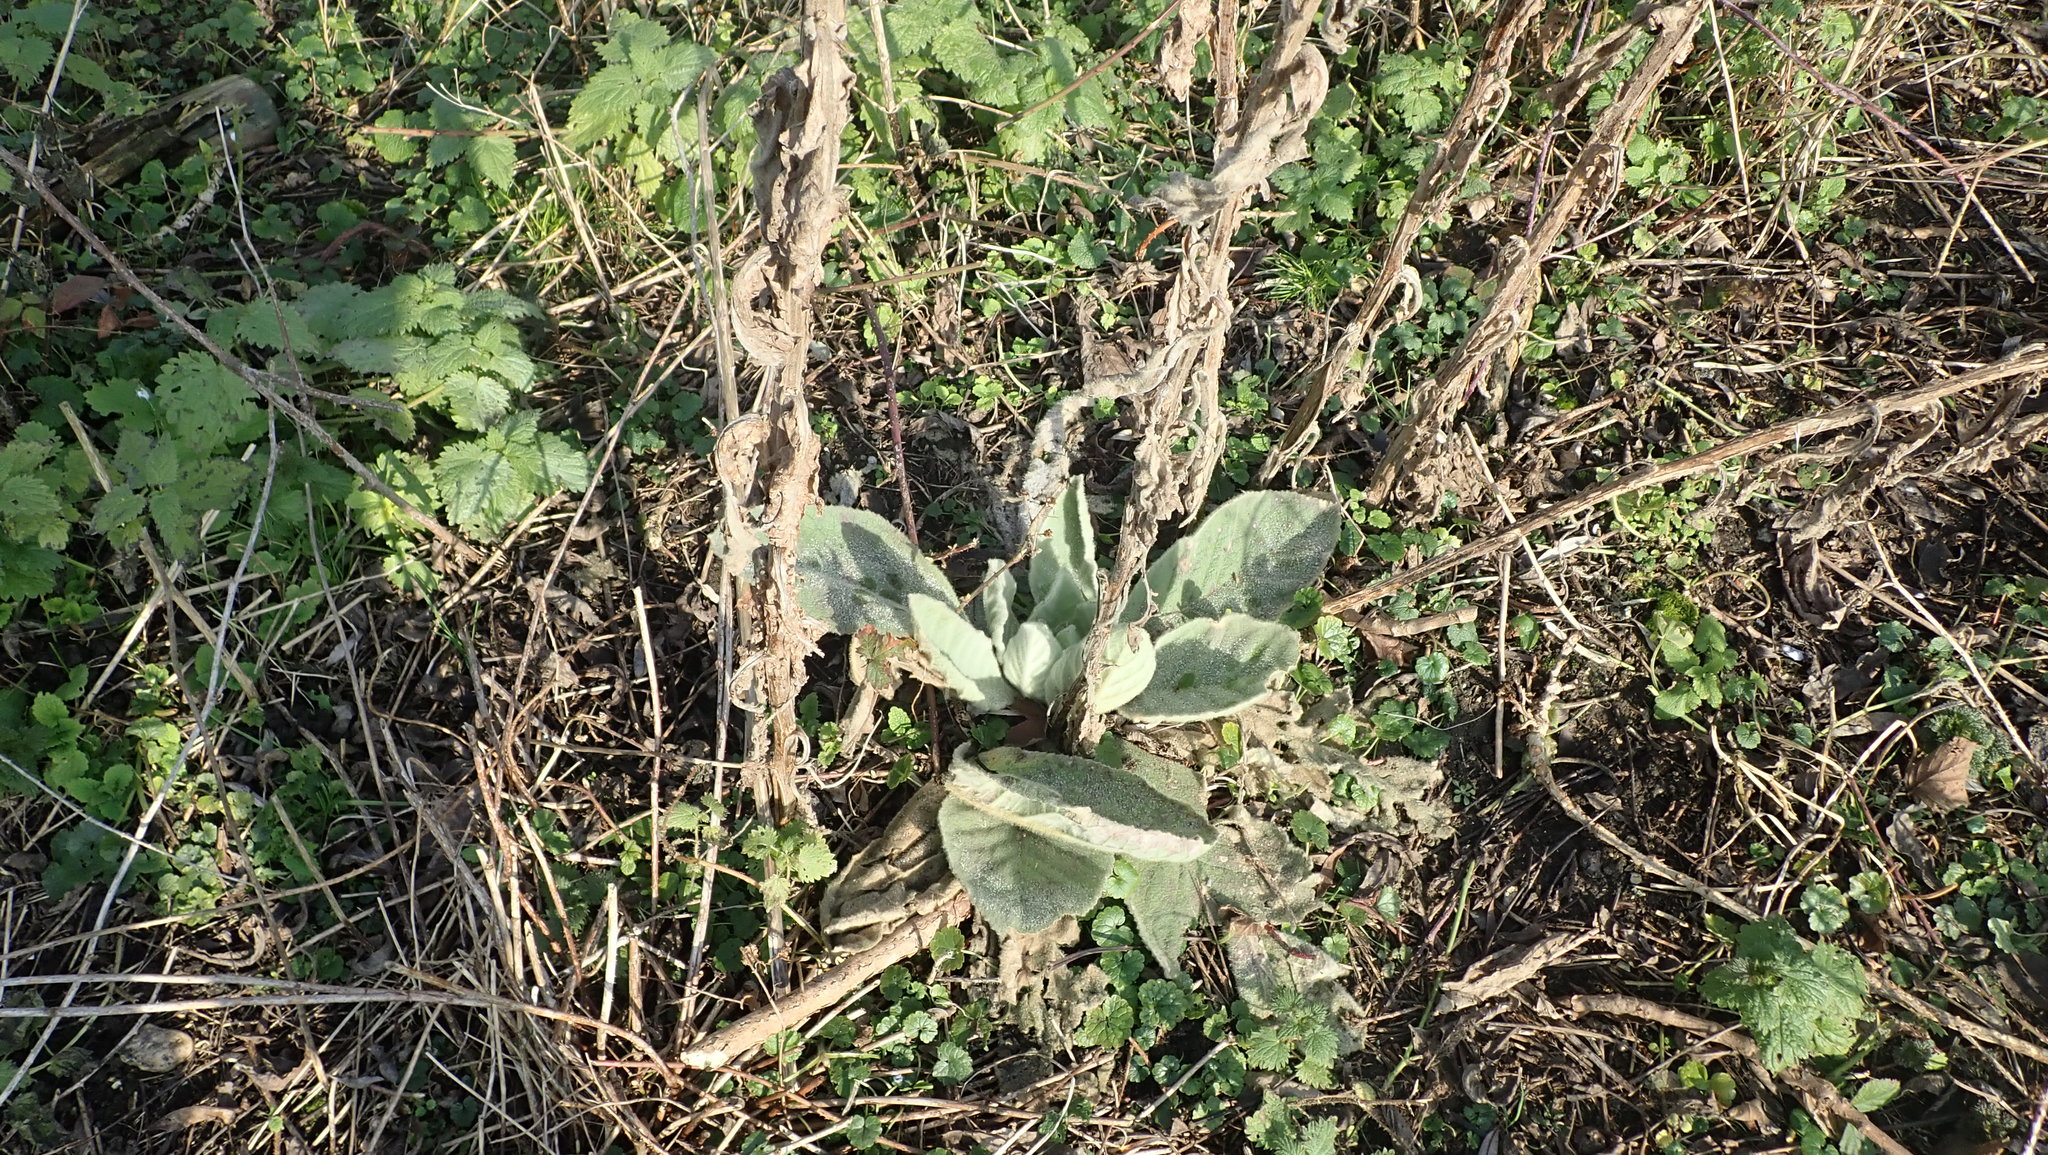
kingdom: Plantae
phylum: Tracheophyta
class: Magnoliopsida
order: Lamiales
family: Scrophulariaceae
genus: Verbascum
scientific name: Verbascum thapsus
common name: Common mullein
